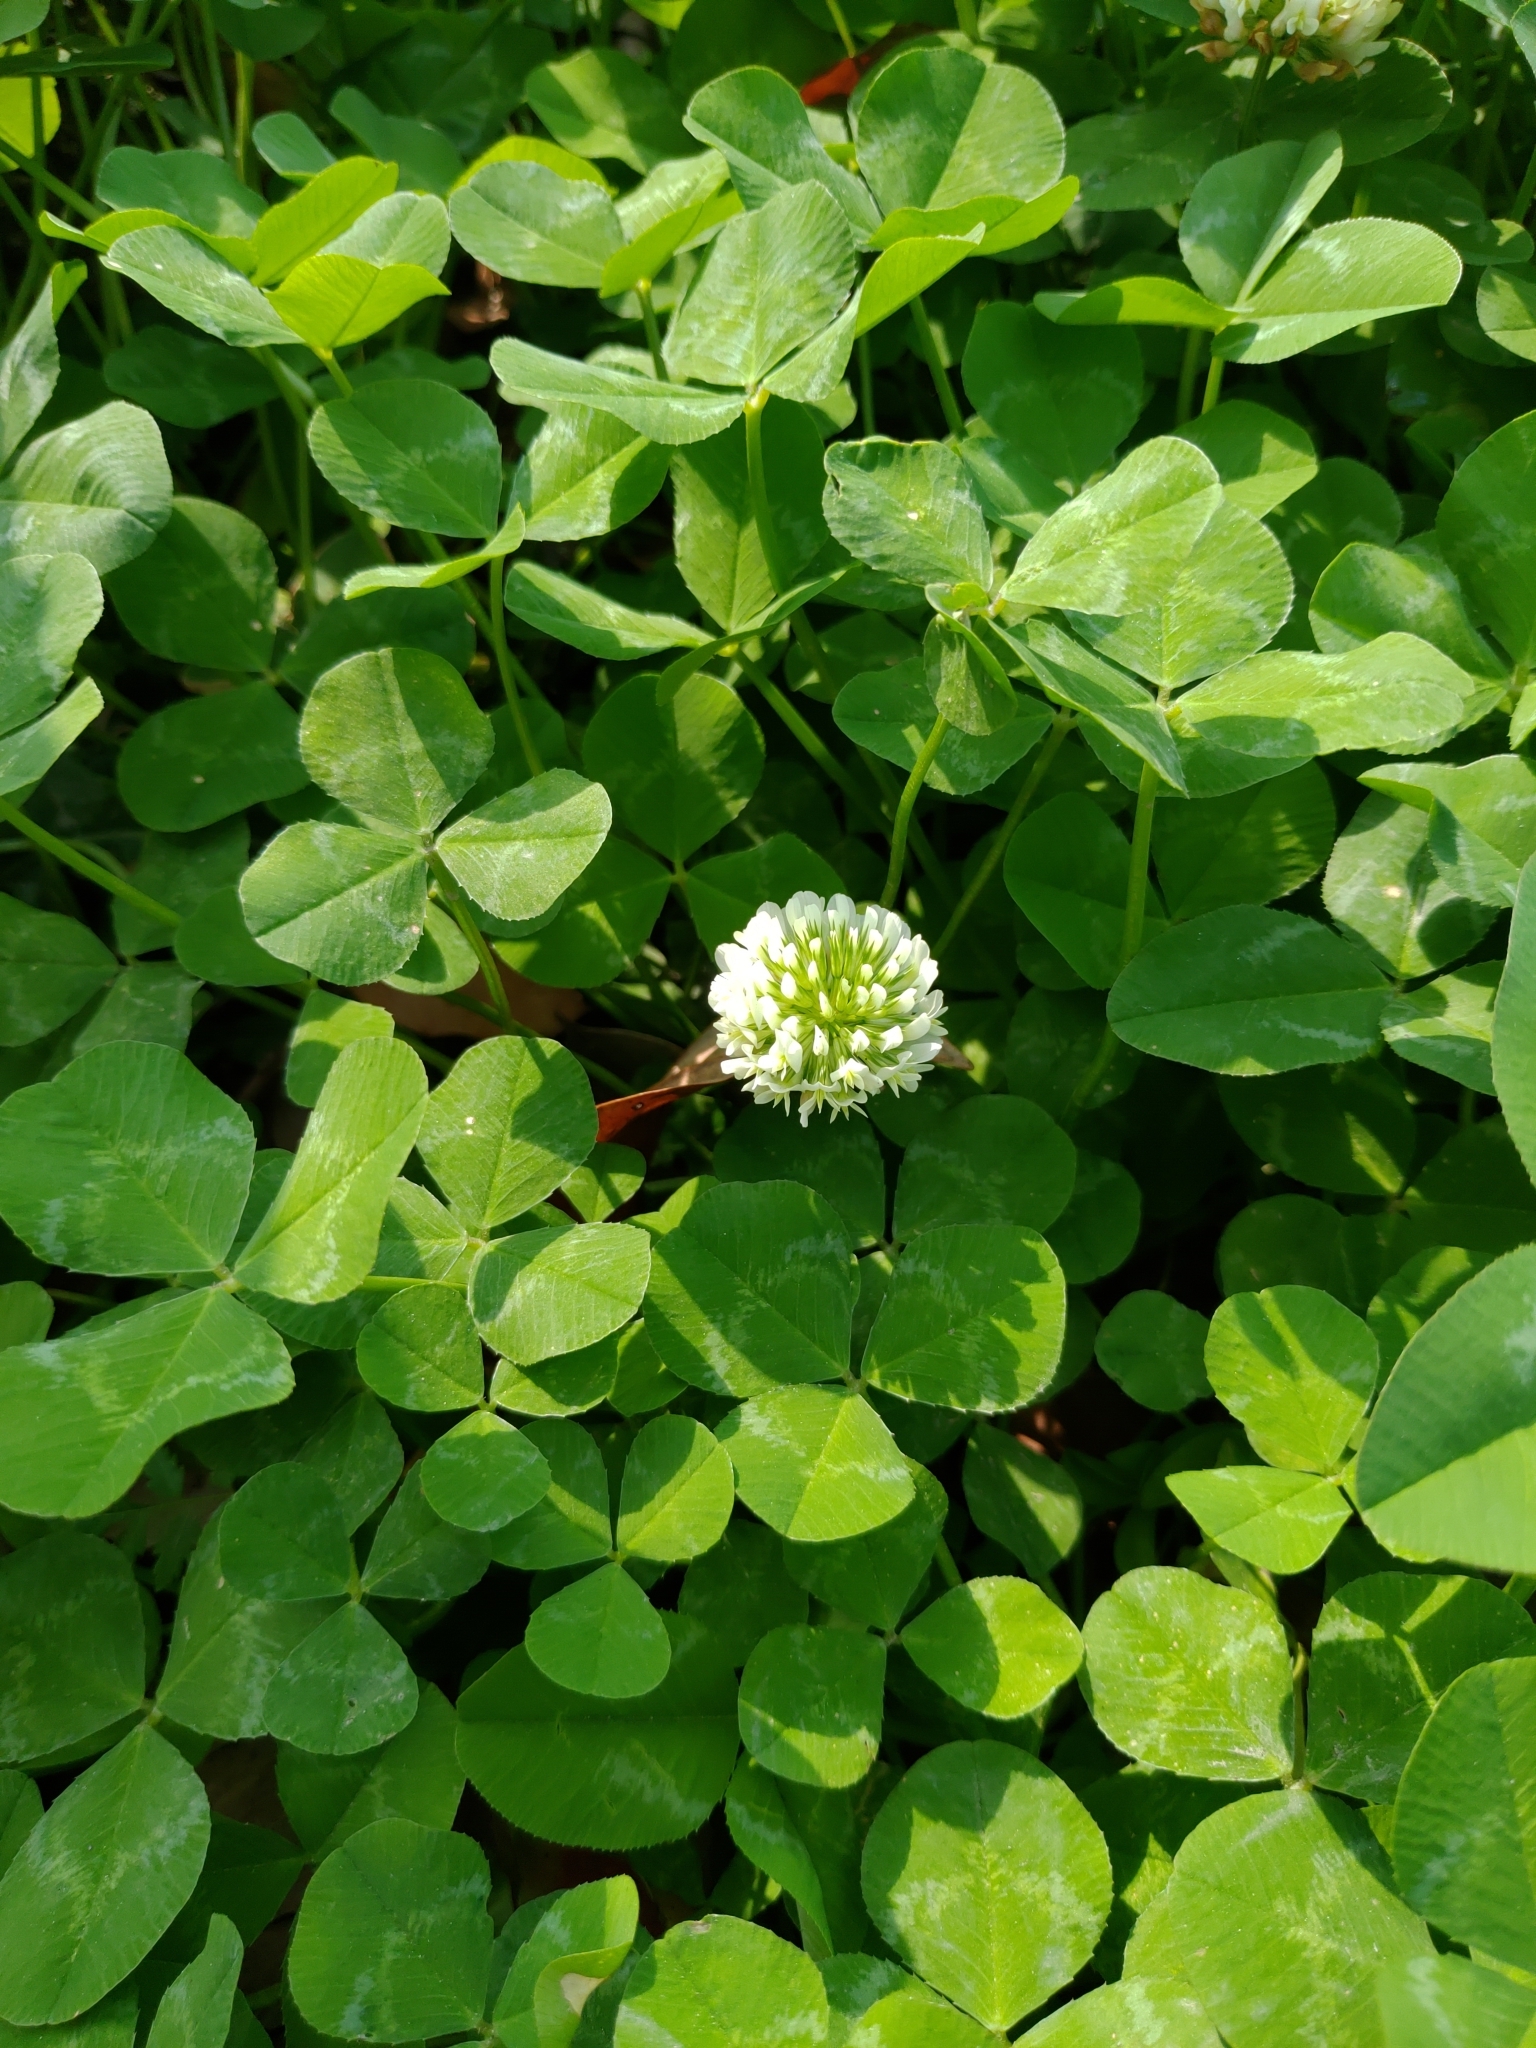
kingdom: Plantae
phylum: Tracheophyta
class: Magnoliopsida
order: Fabales
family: Fabaceae
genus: Trifolium
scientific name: Trifolium repens
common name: White clover
